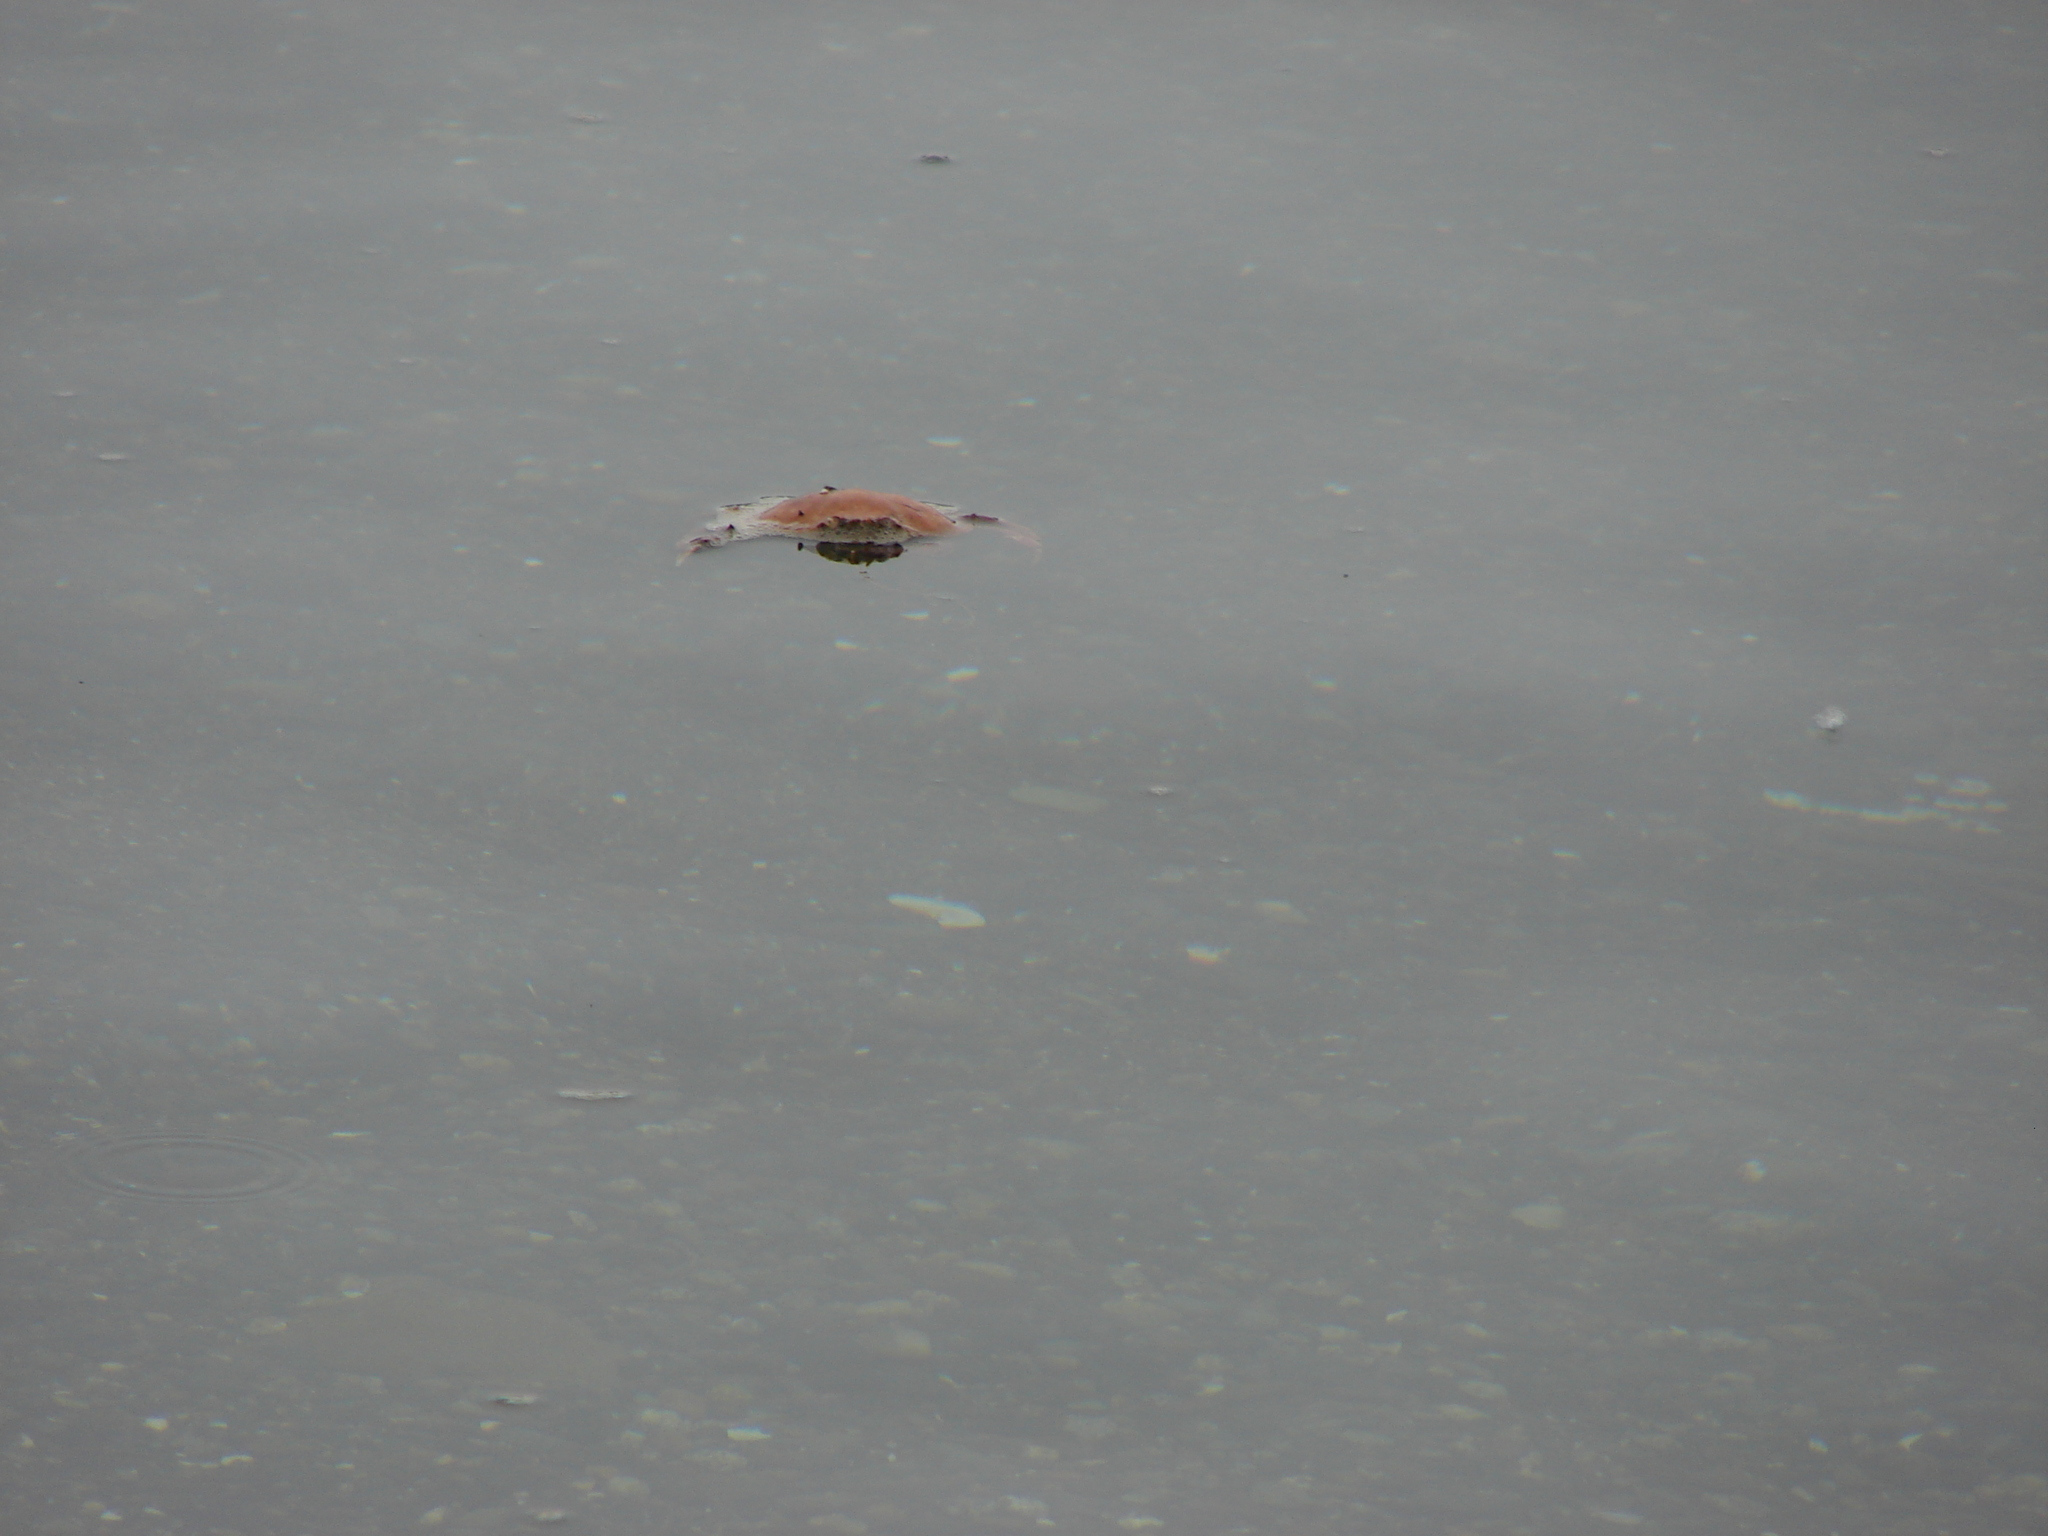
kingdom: Animalia
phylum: Arthropoda
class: Malacostraca
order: Decapoda
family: Cancridae
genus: Metacarcinus
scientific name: Metacarcinus gracilis
